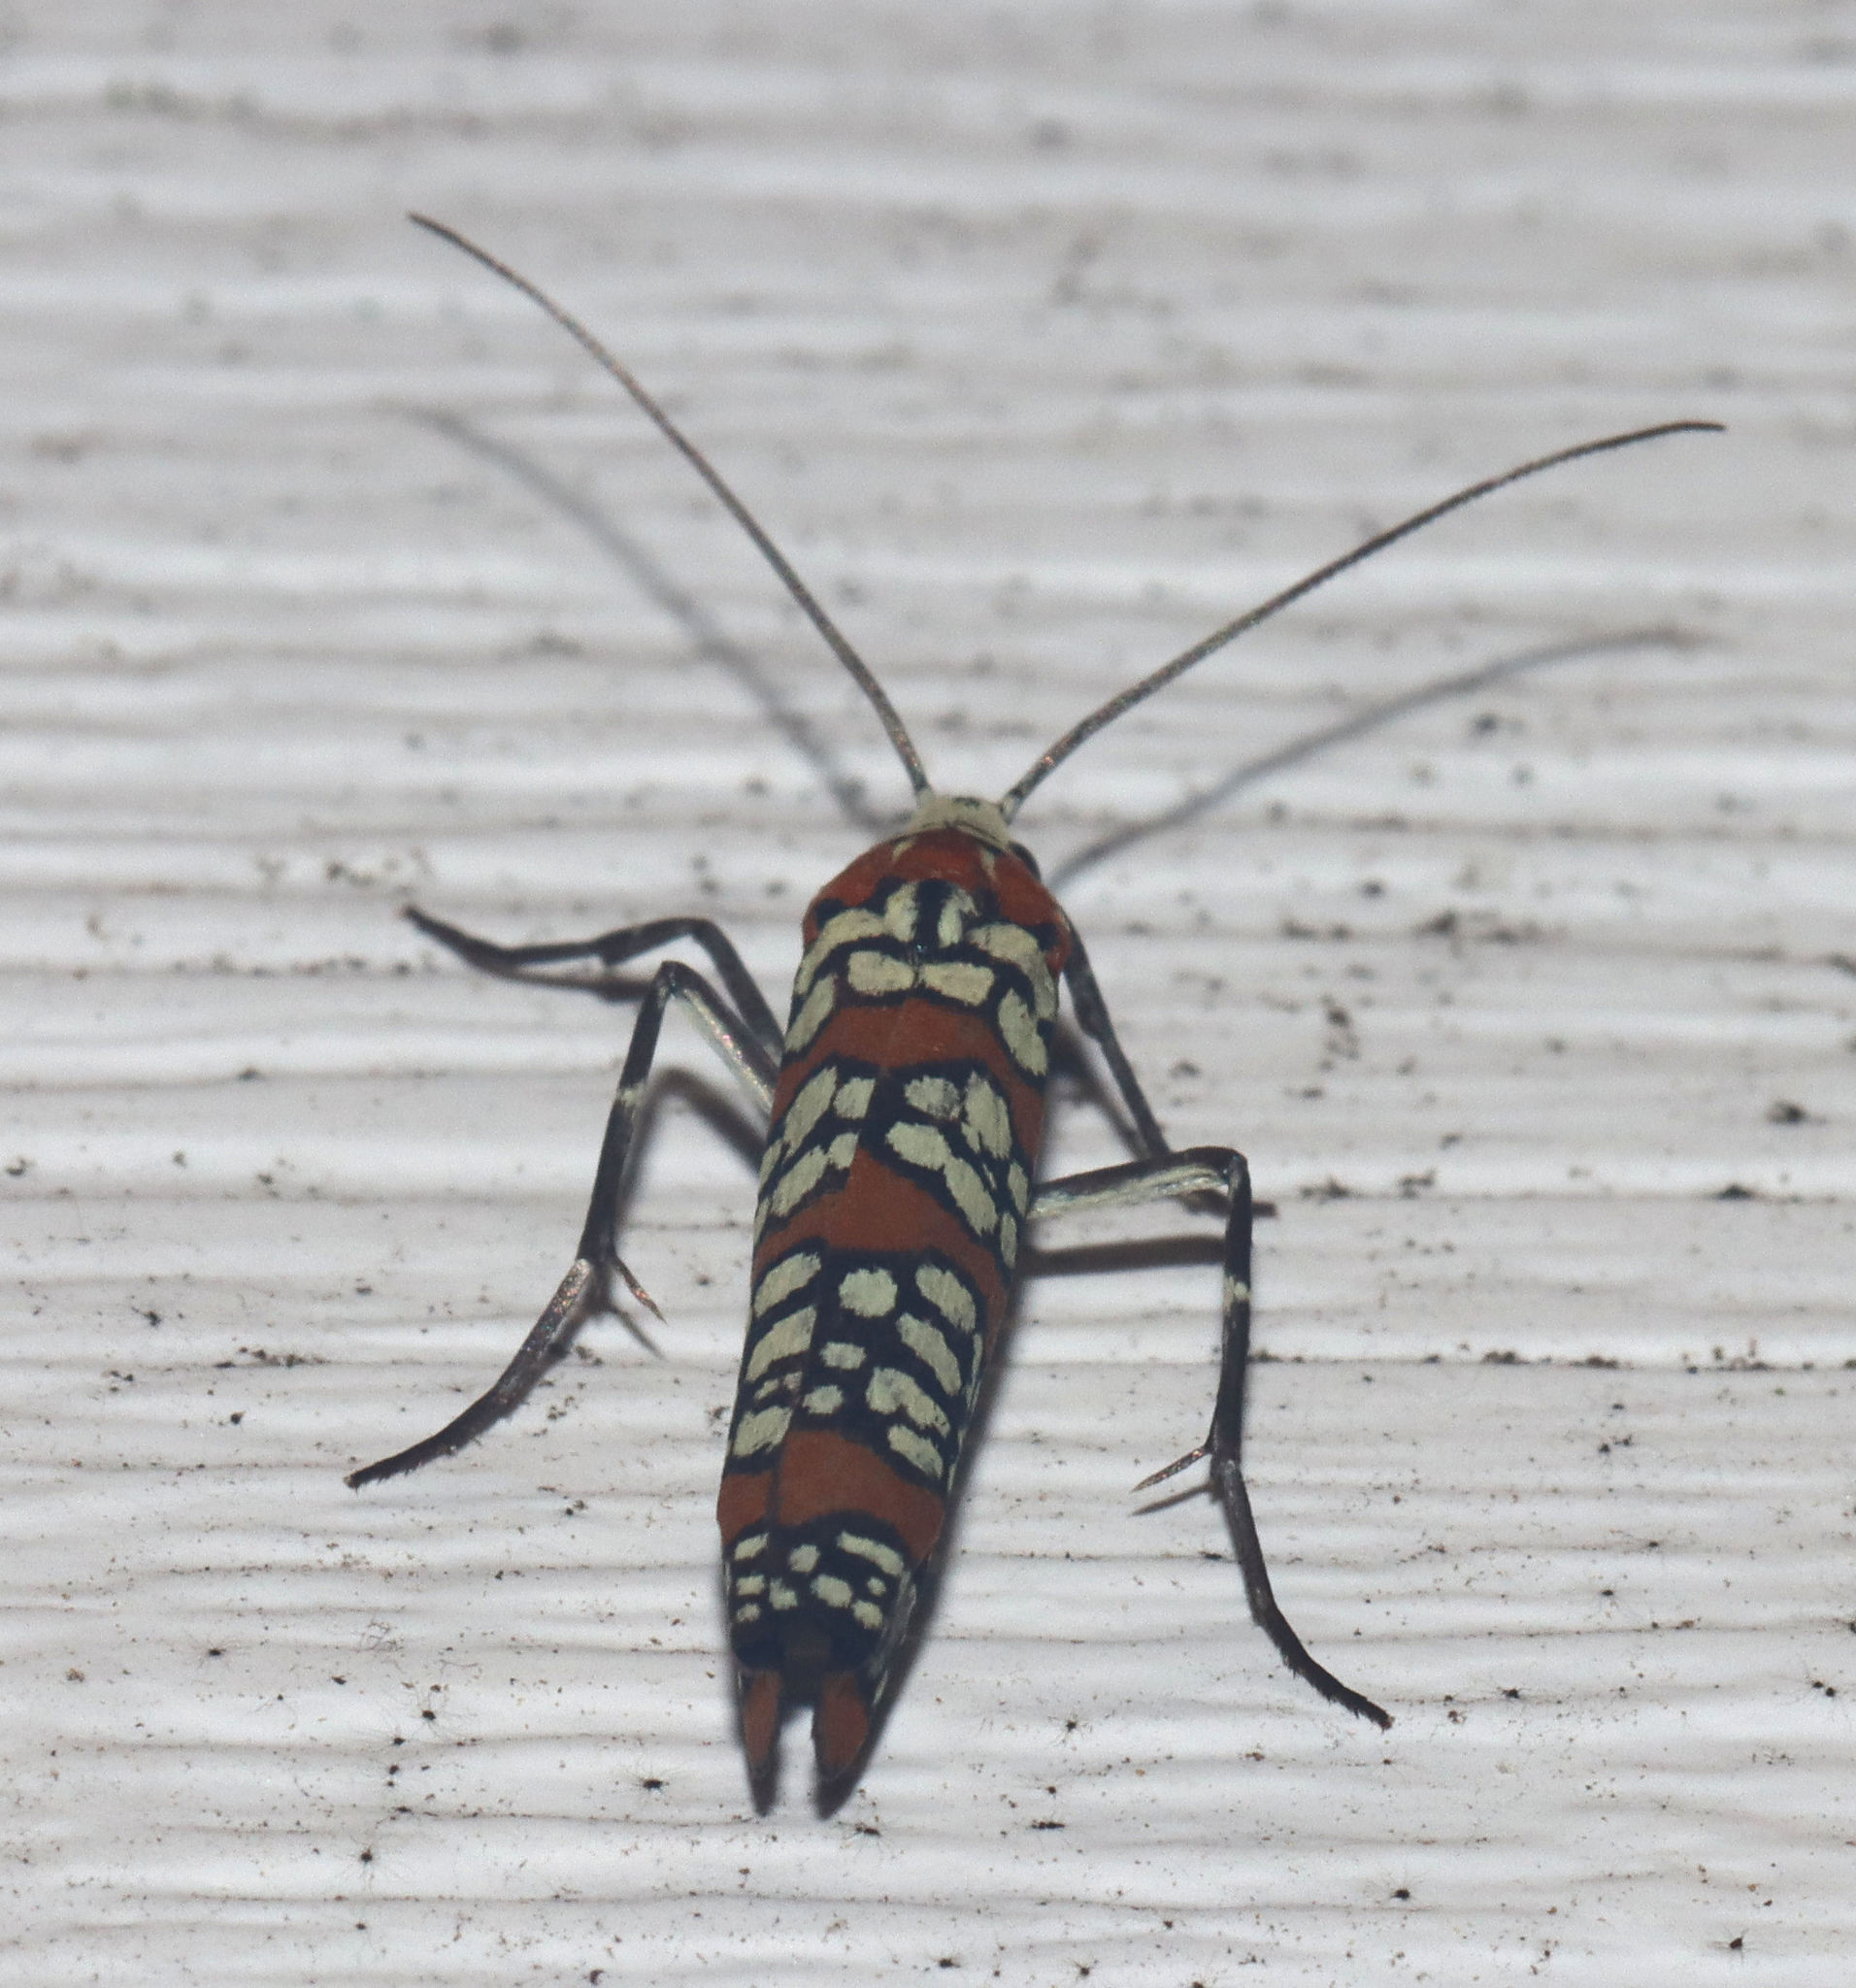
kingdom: Animalia
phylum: Arthropoda
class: Insecta
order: Lepidoptera
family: Attevidae
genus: Atteva
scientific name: Atteva punctella
